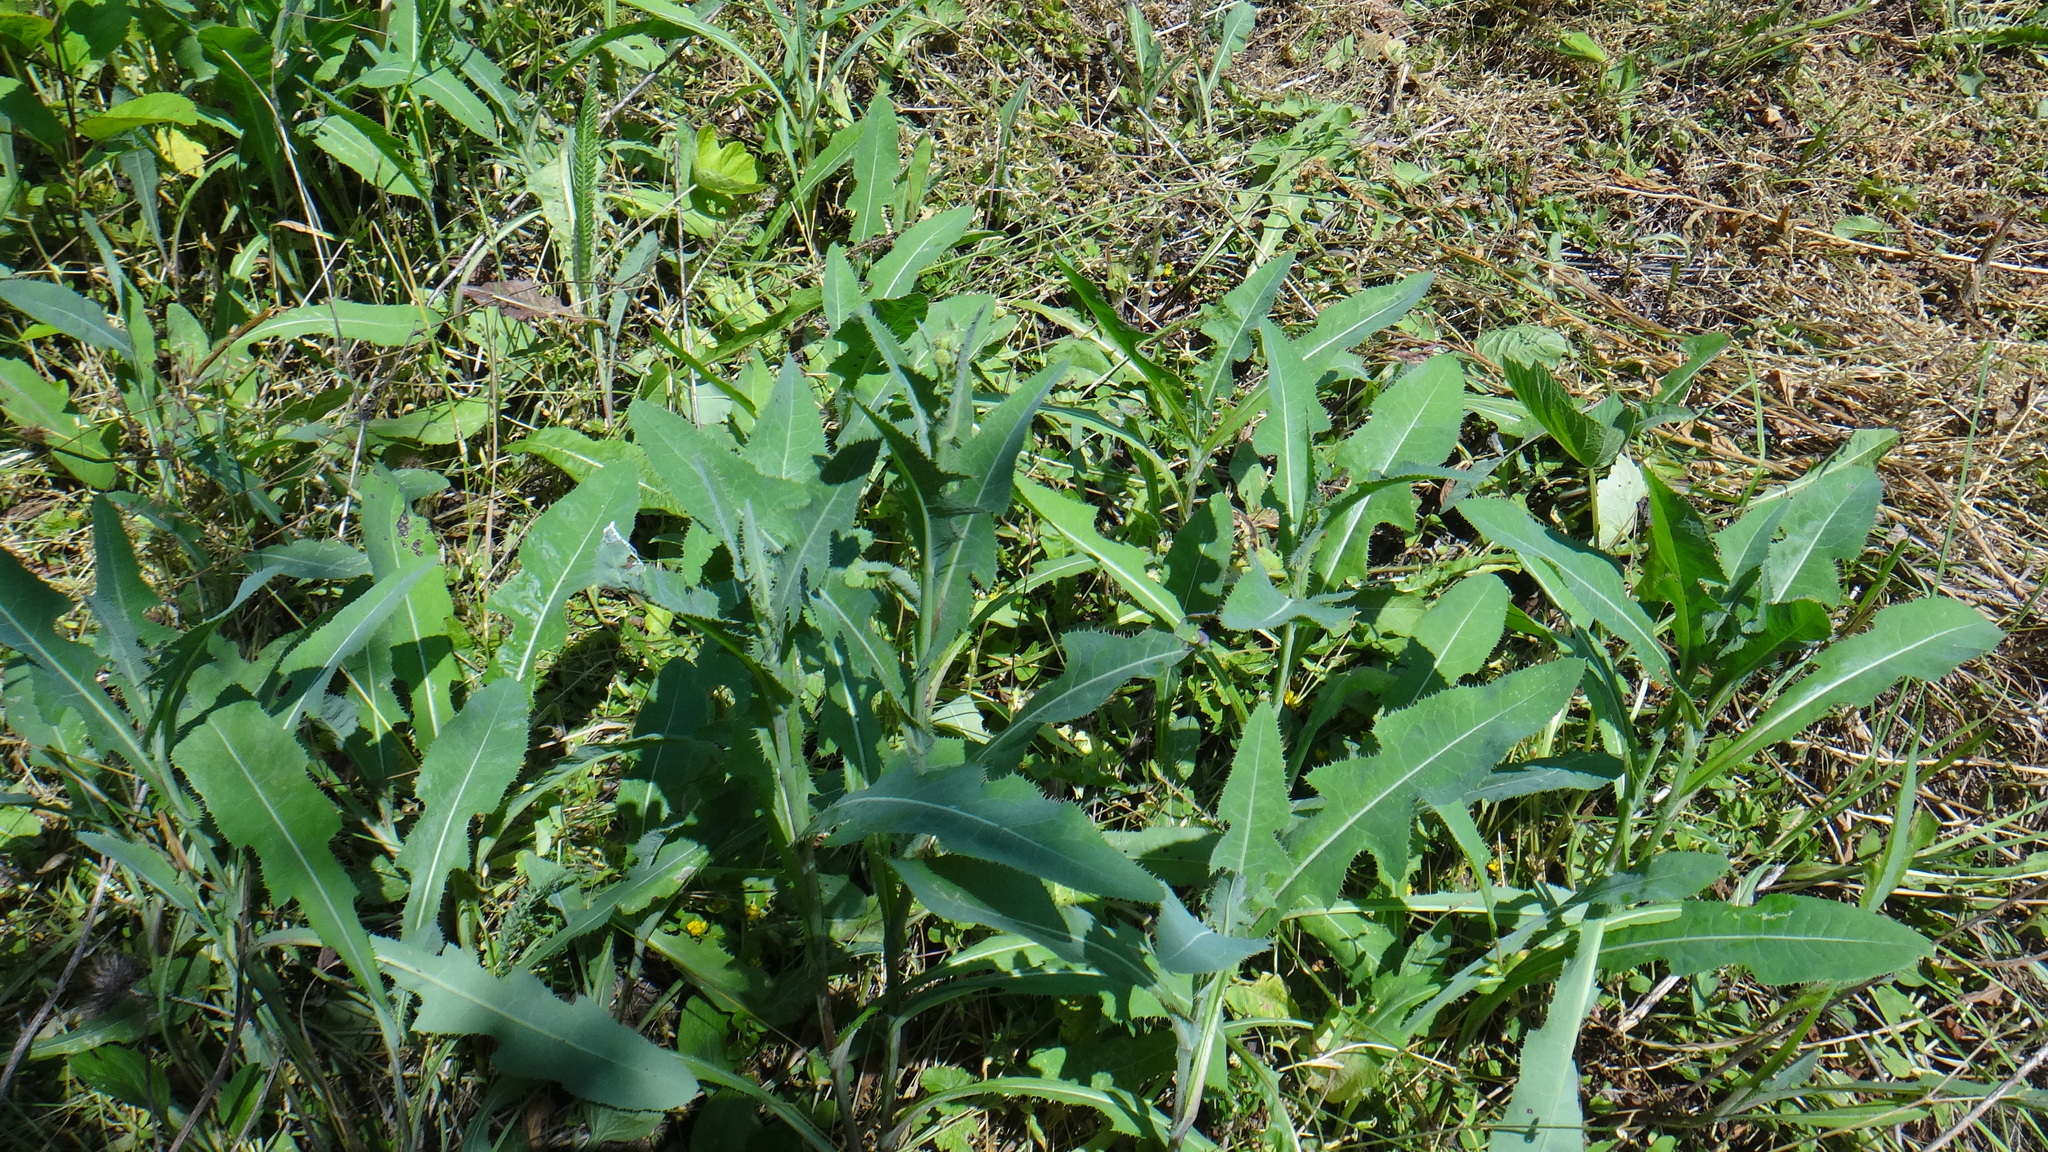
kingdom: Plantae
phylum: Tracheophyta
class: Magnoliopsida
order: Asterales
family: Asteraceae
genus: Sonchus
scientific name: Sonchus arvensis
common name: Perennial sow-thistle
